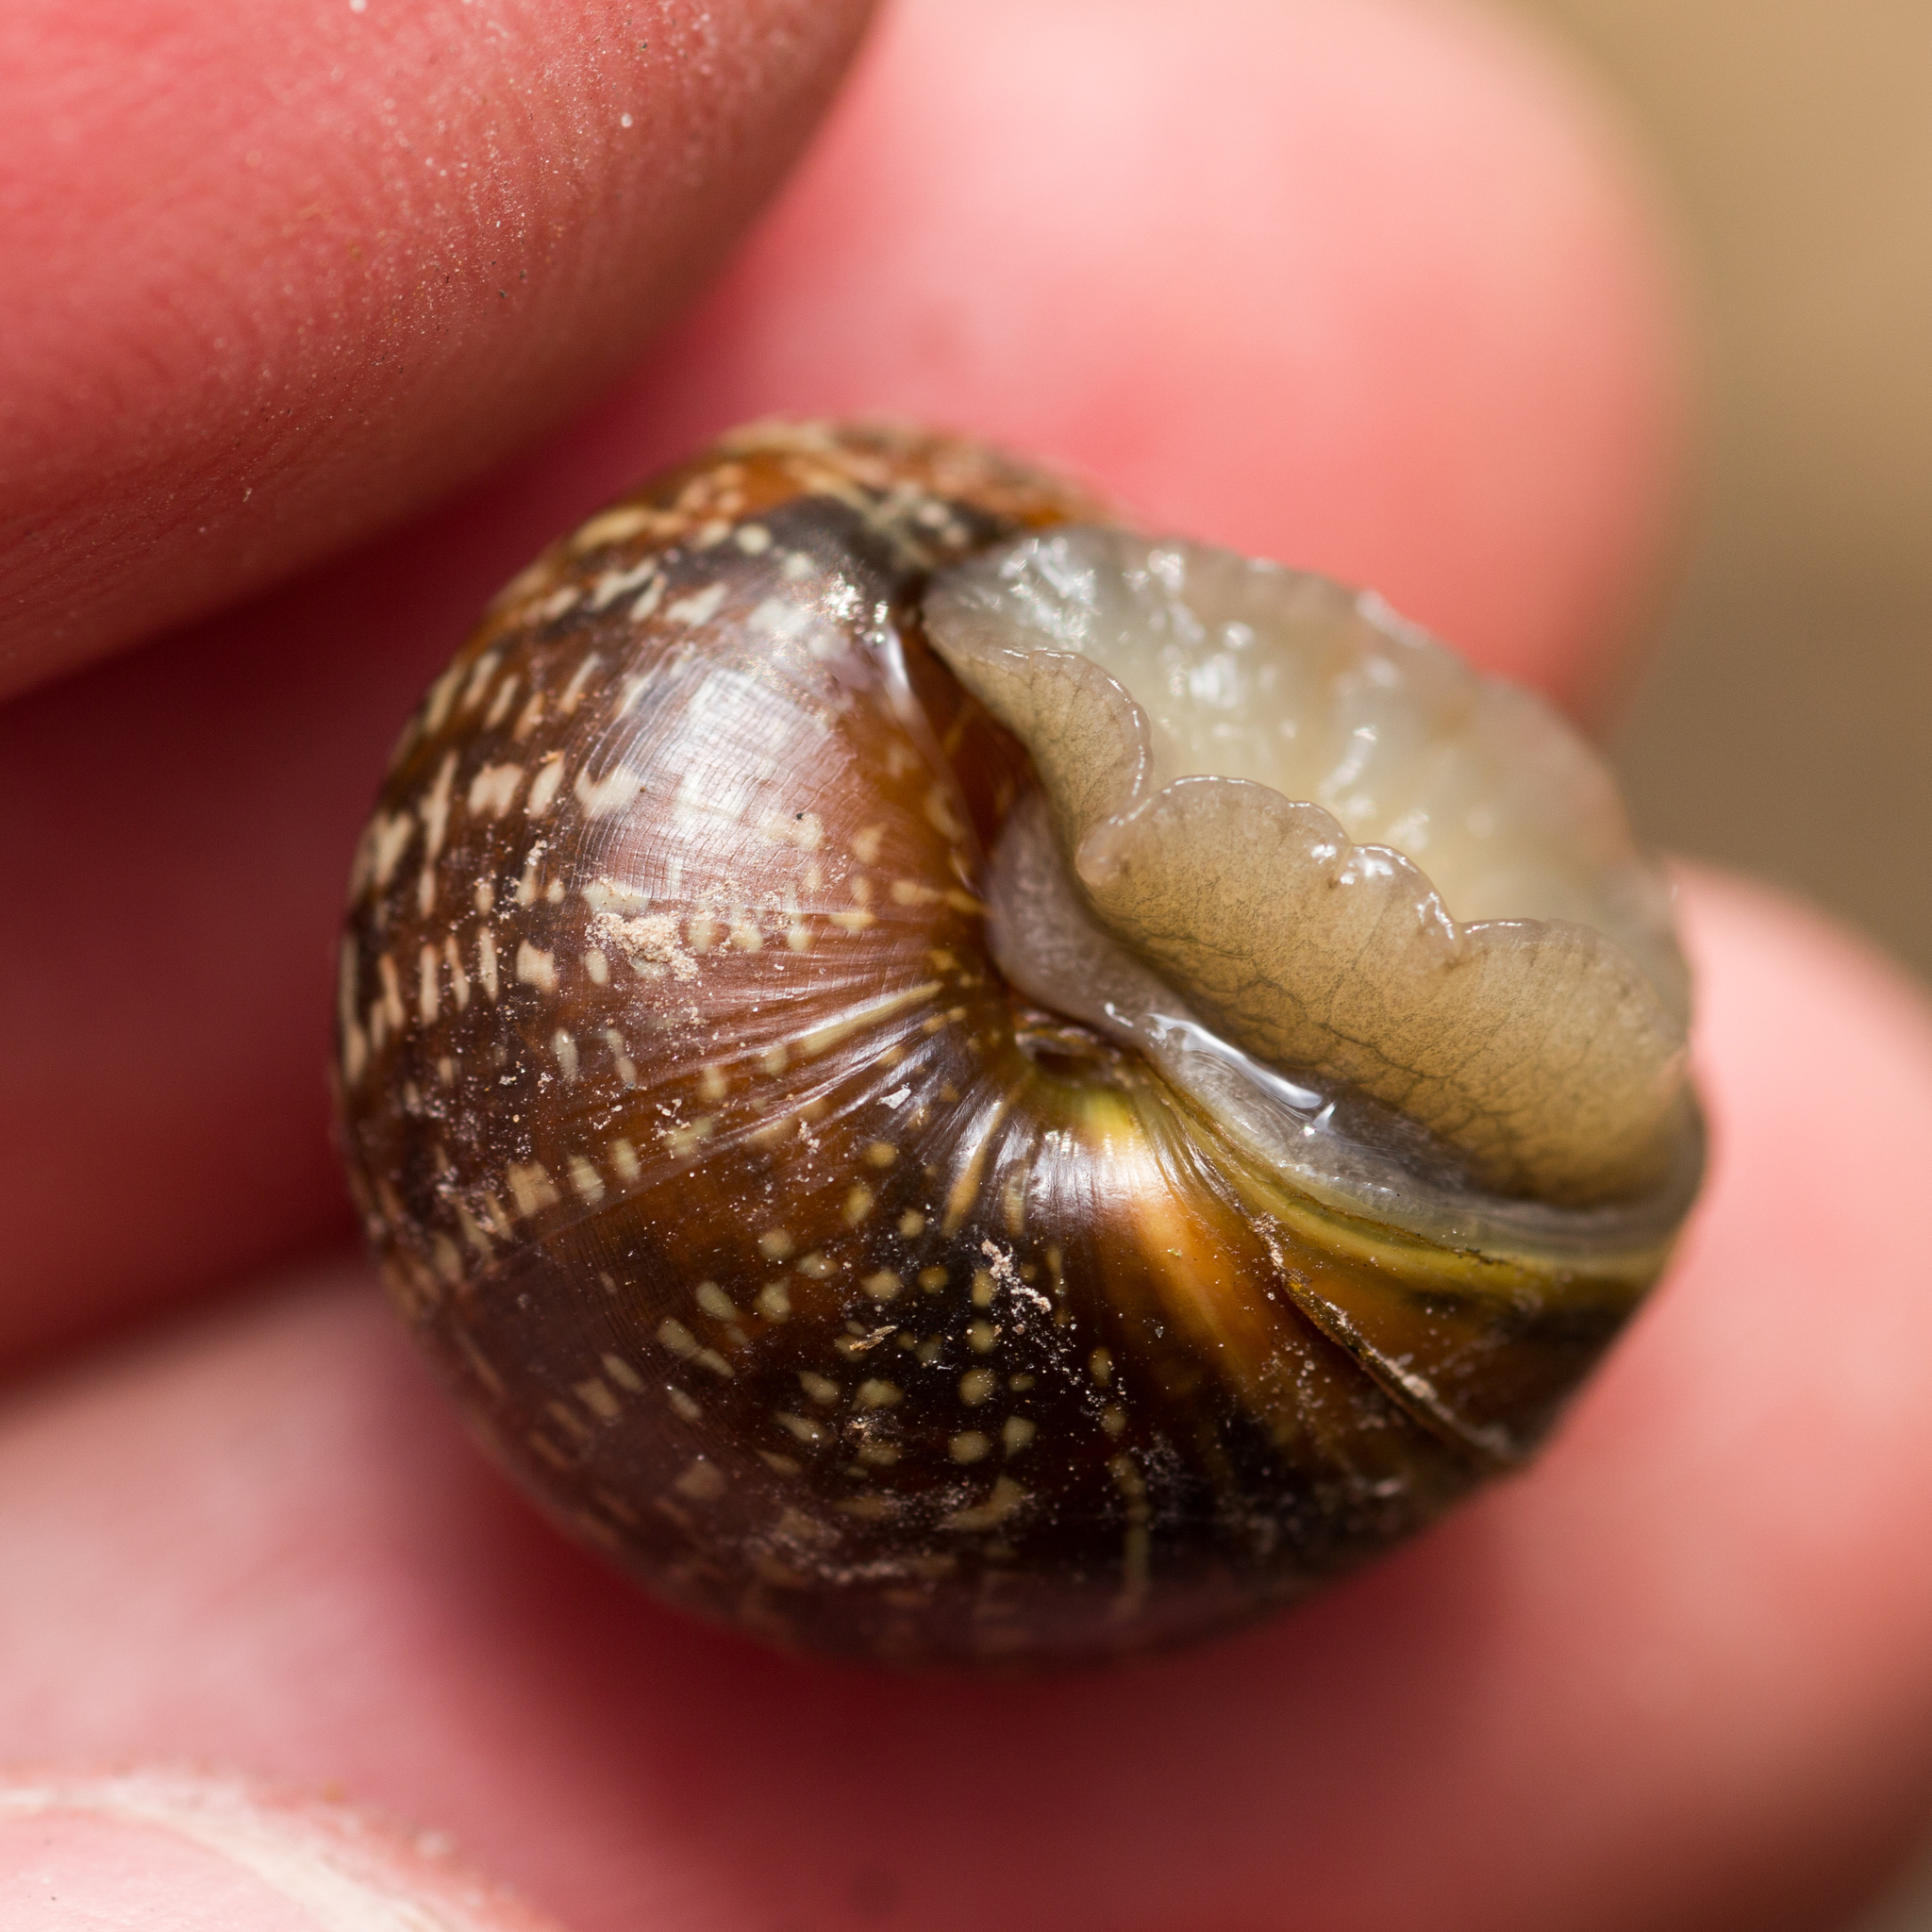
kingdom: Animalia
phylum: Mollusca
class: Gastropoda
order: Stylommatophora
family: Helicidae
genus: Arianta
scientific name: Arianta arbustorum
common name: Copse snail
